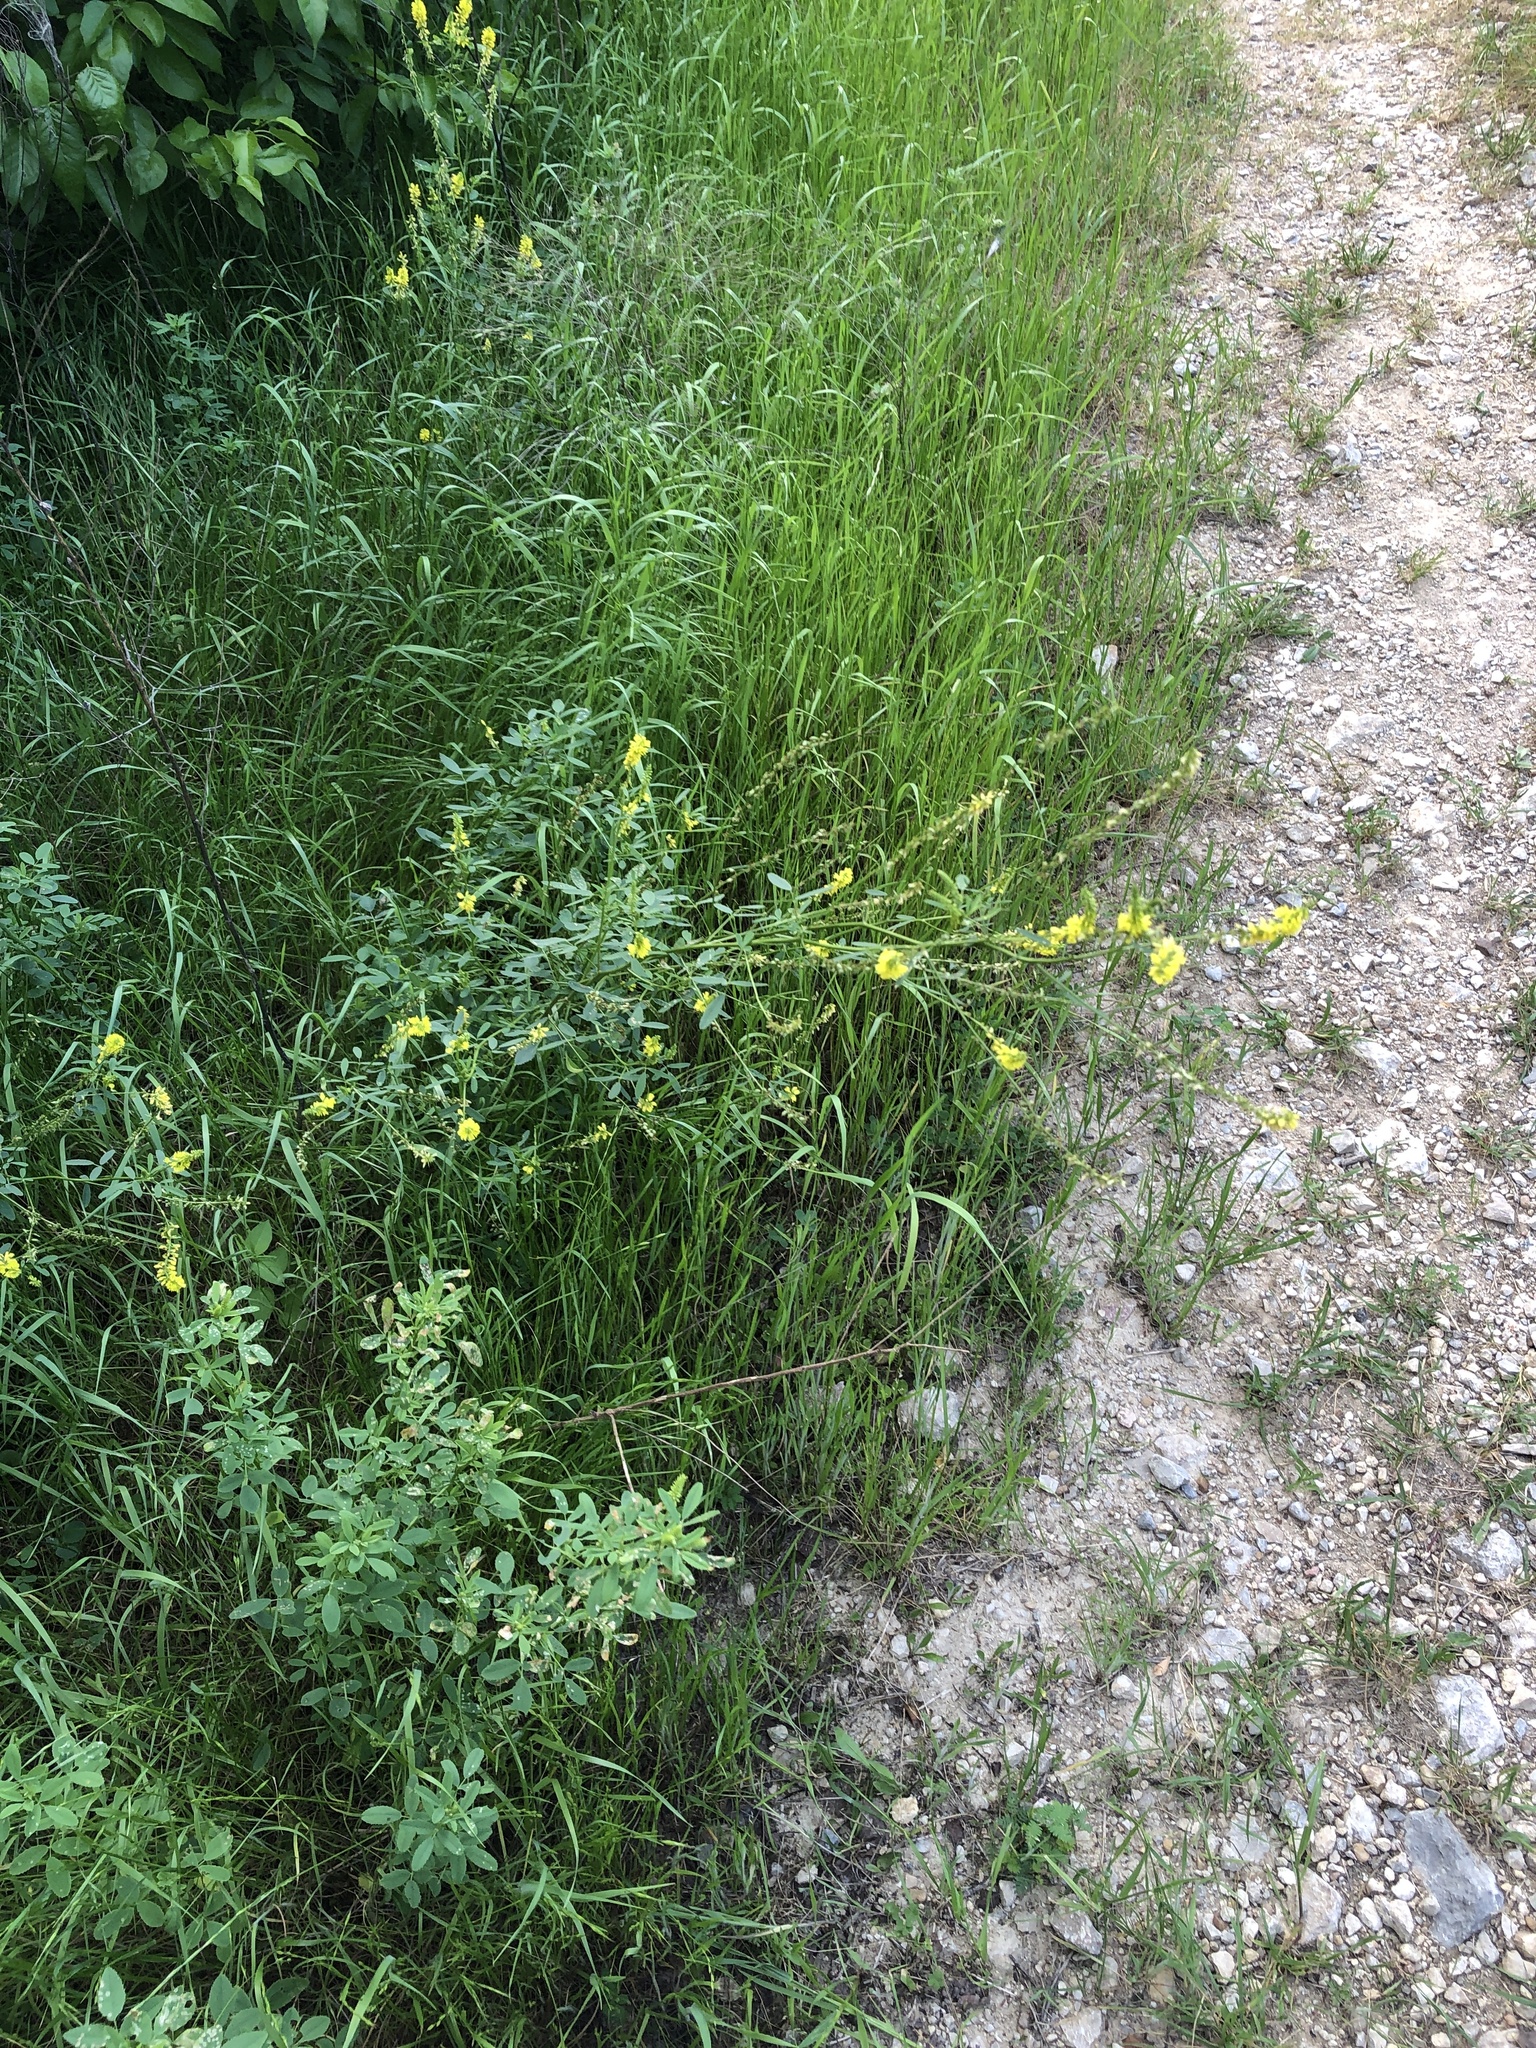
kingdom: Plantae
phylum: Tracheophyta
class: Magnoliopsida
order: Fabales
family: Fabaceae
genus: Melilotus
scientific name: Melilotus officinalis
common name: Sweetclover
